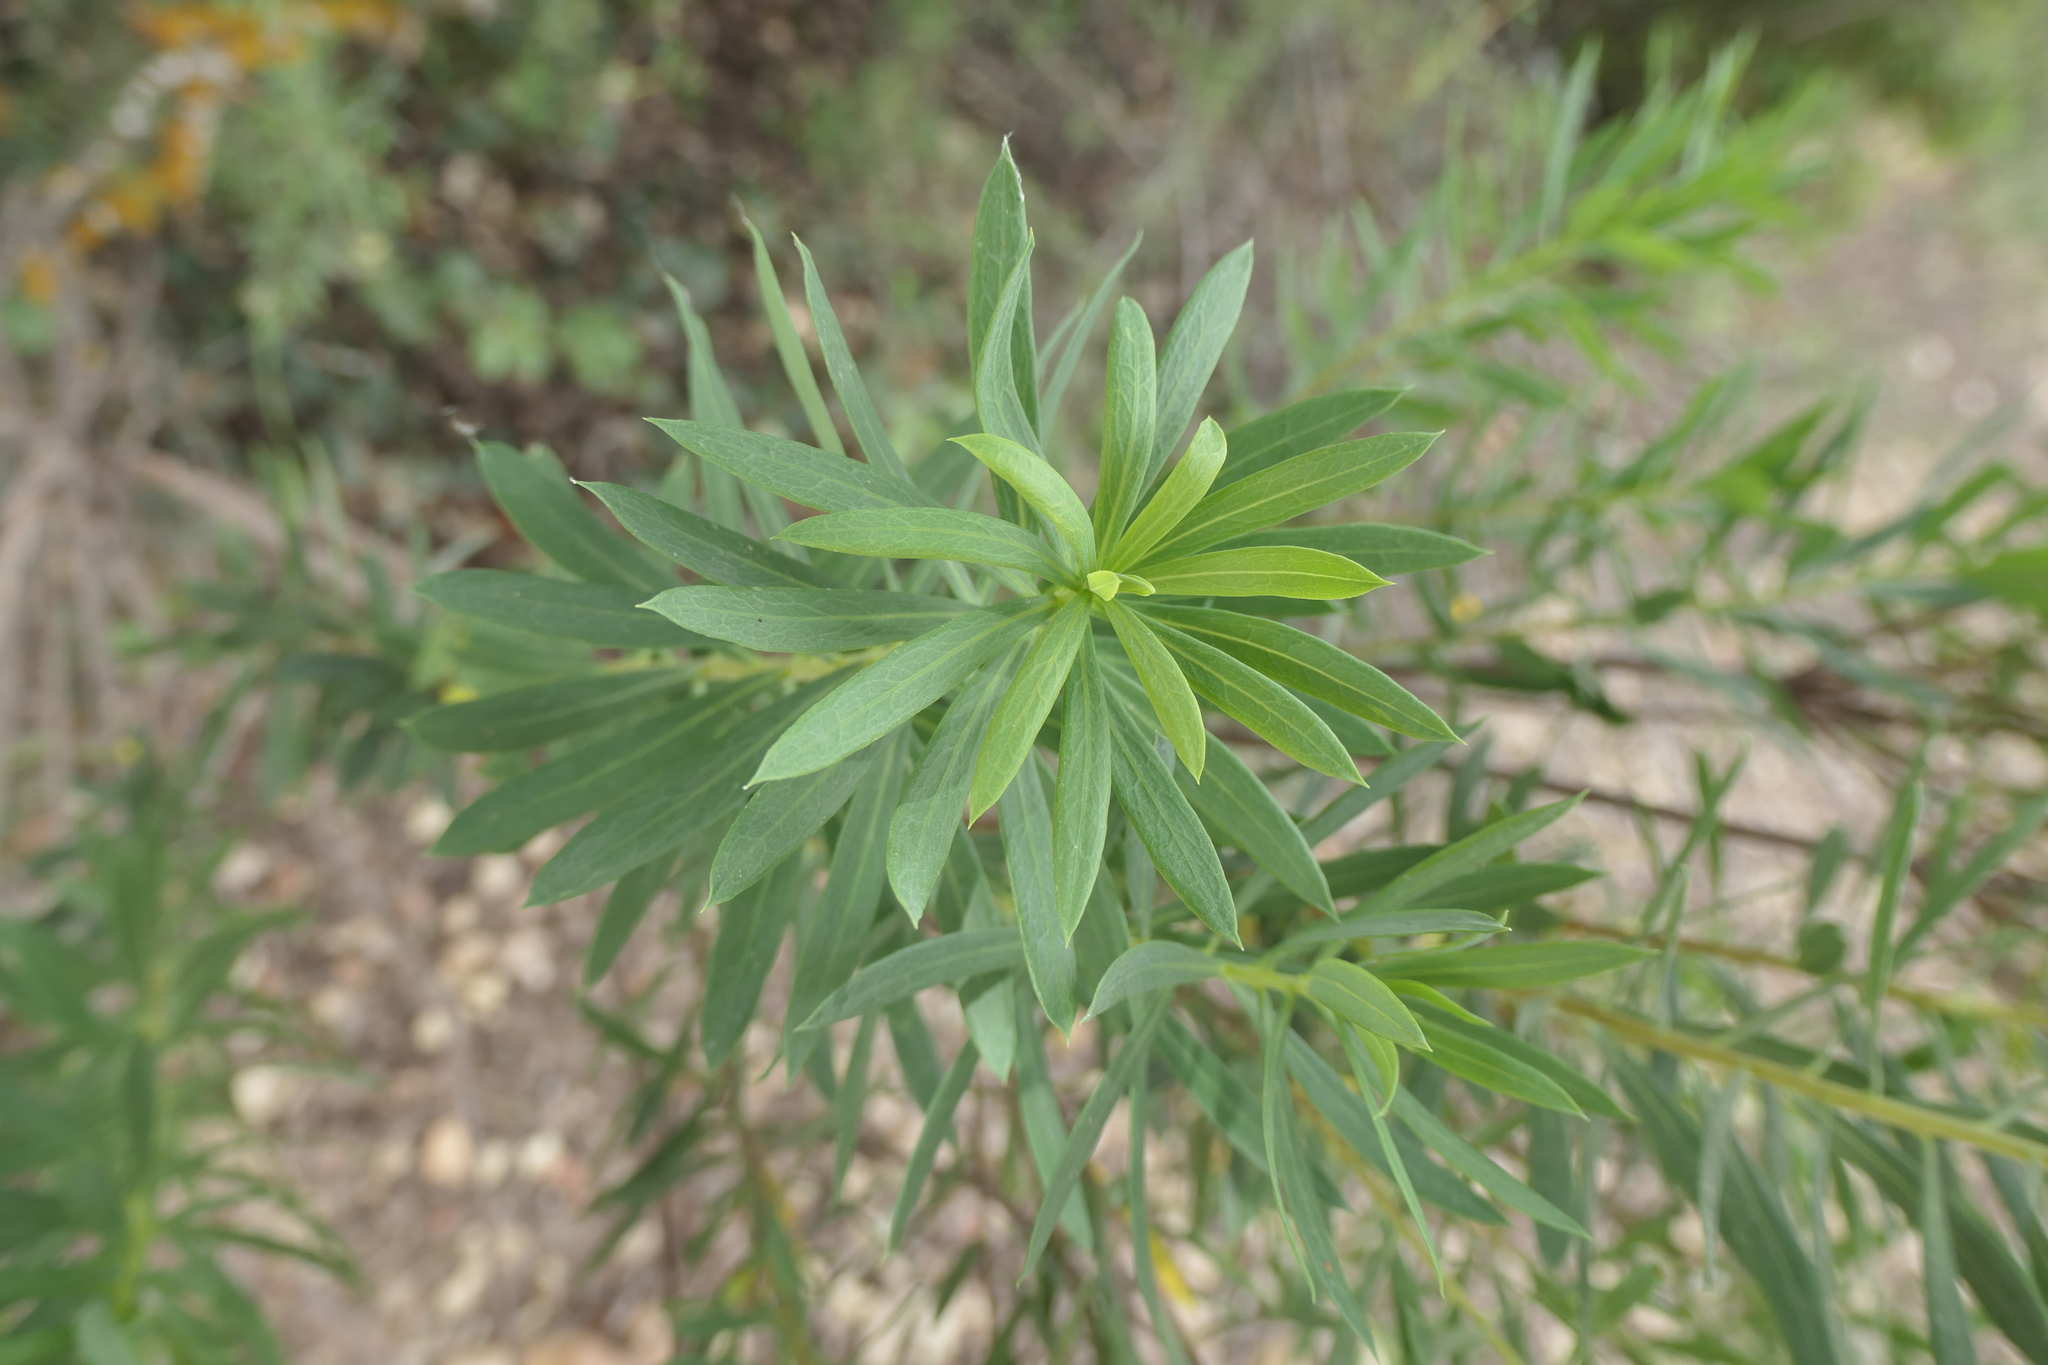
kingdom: Plantae
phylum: Tracheophyta
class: Magnoliopsida
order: Malvales
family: Thymelaeaceae
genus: Daphne
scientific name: Daphne gnidium
